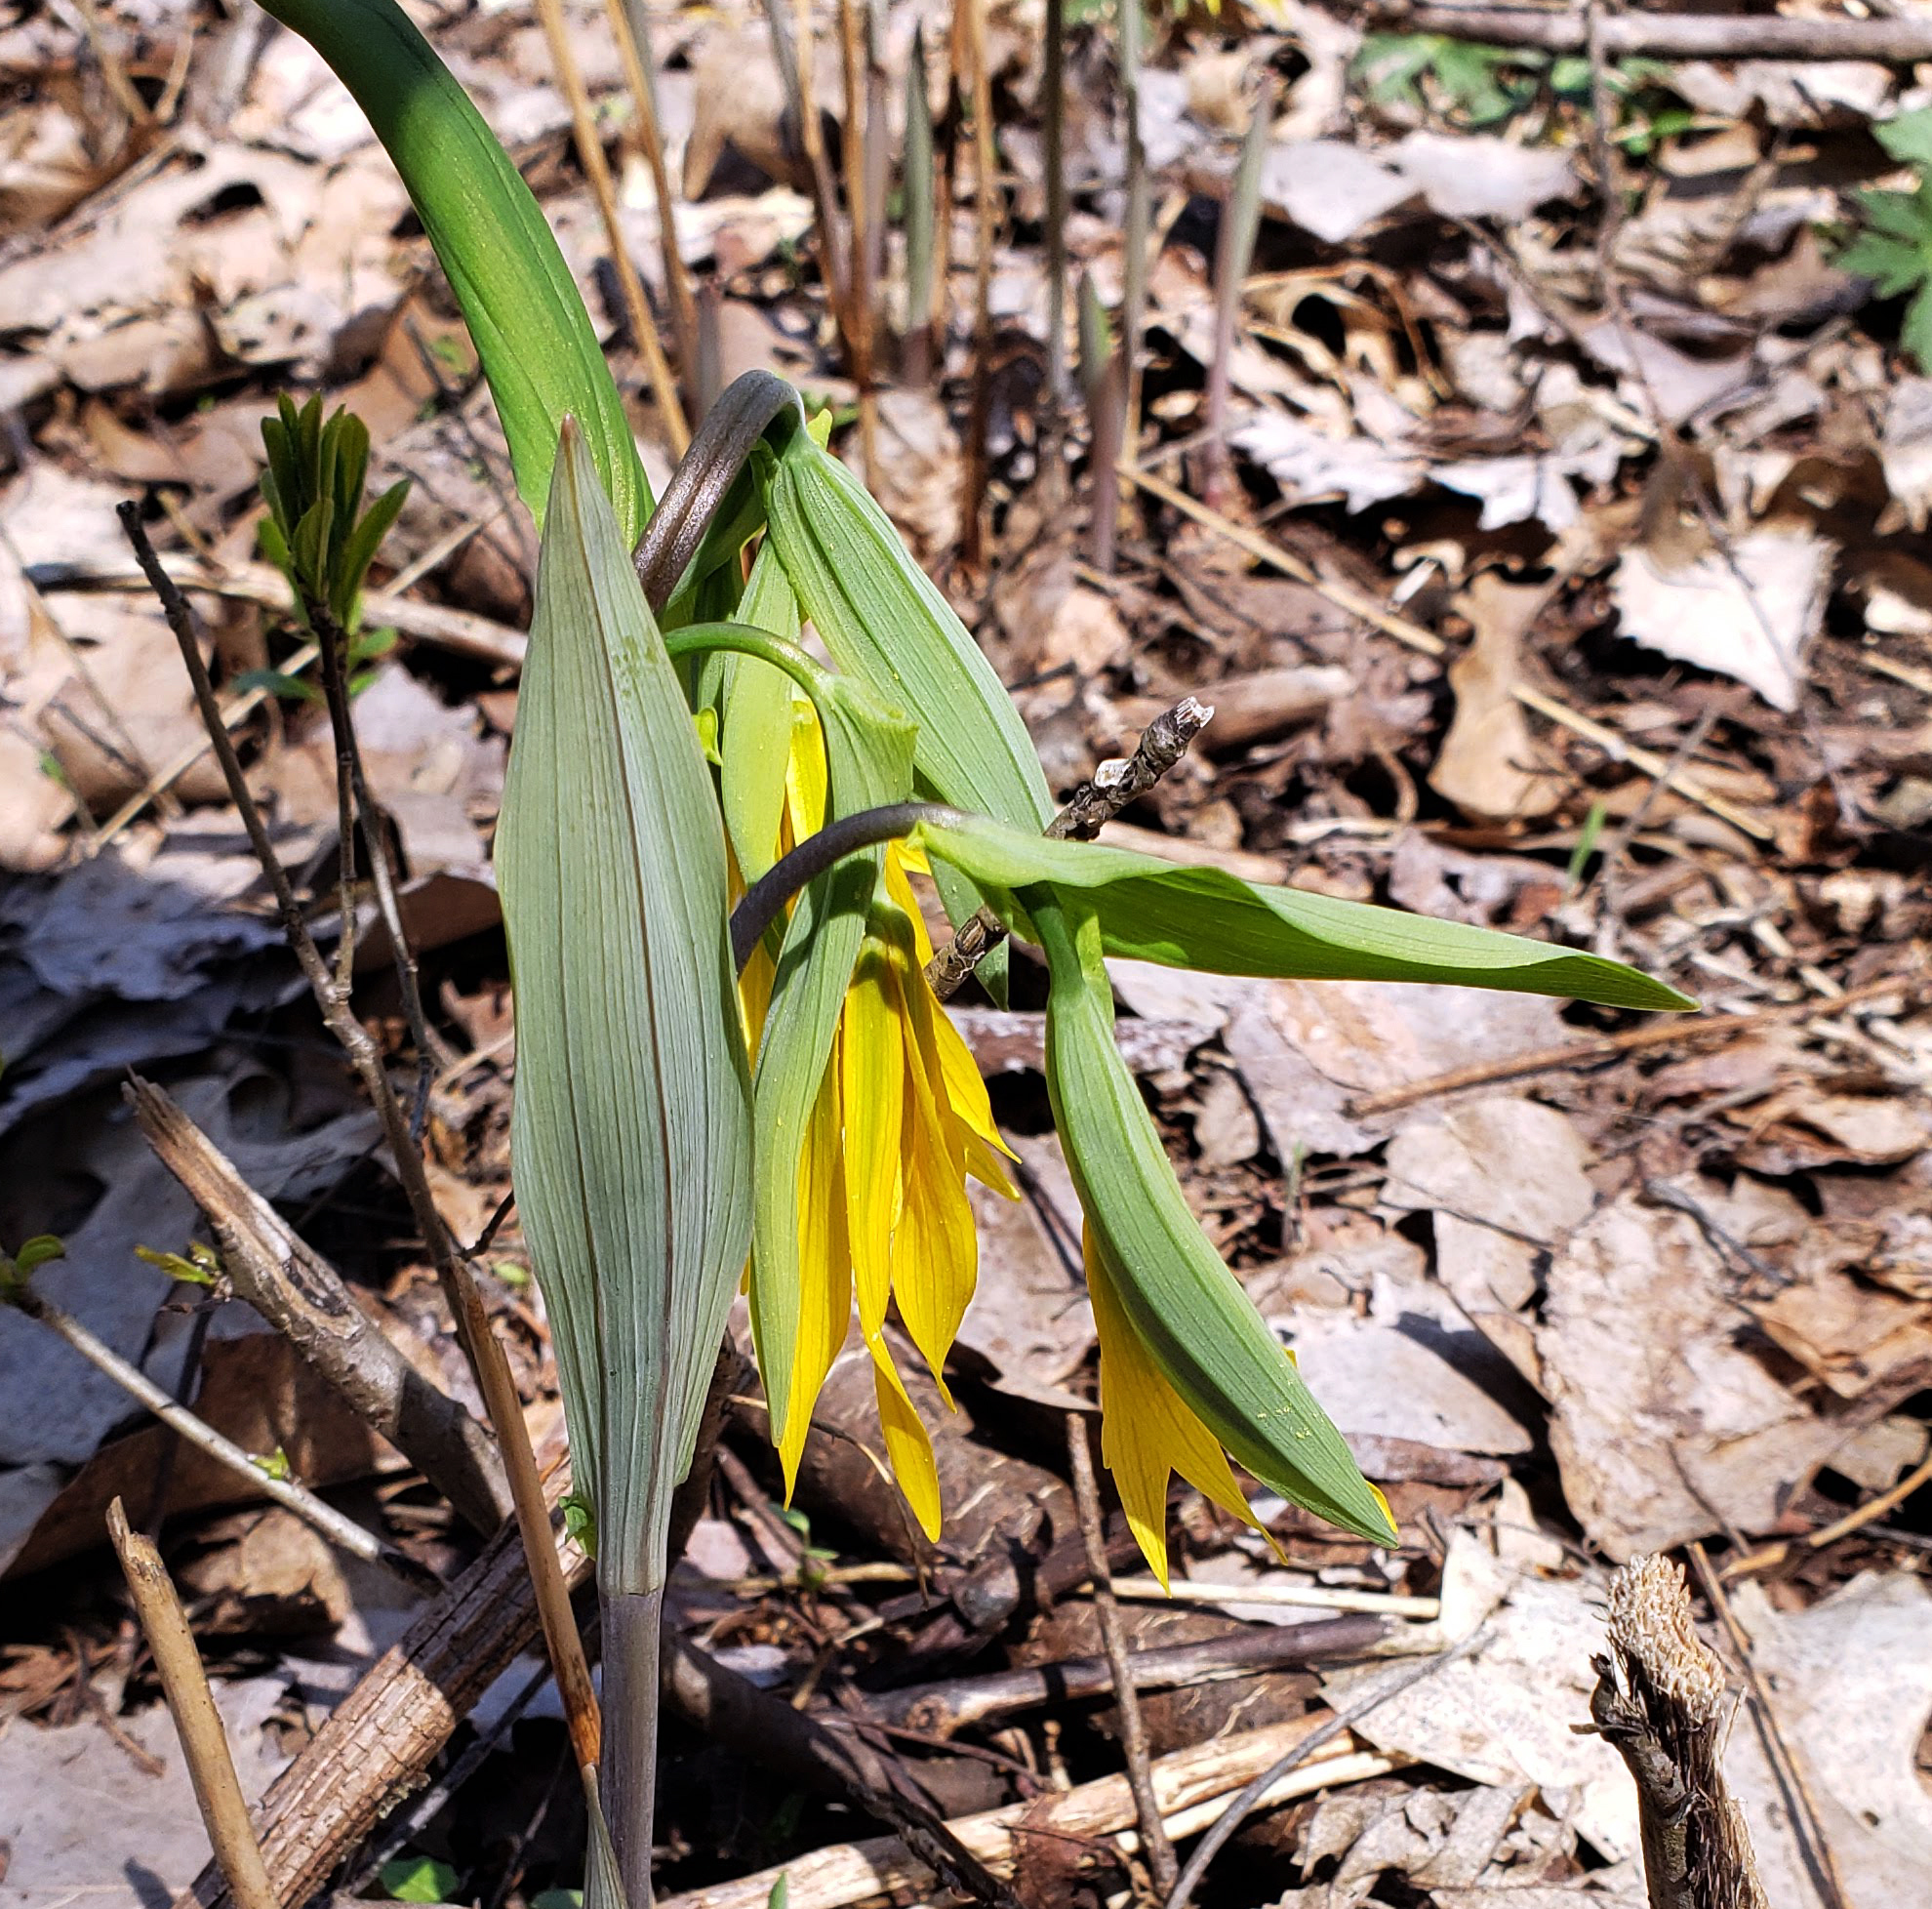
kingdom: Plantae
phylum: Tracheophyta
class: Liliopsida
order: Liliales
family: Colchicaceae
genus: Uvularia
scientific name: Uvularia grandiflora
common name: Bellwort
